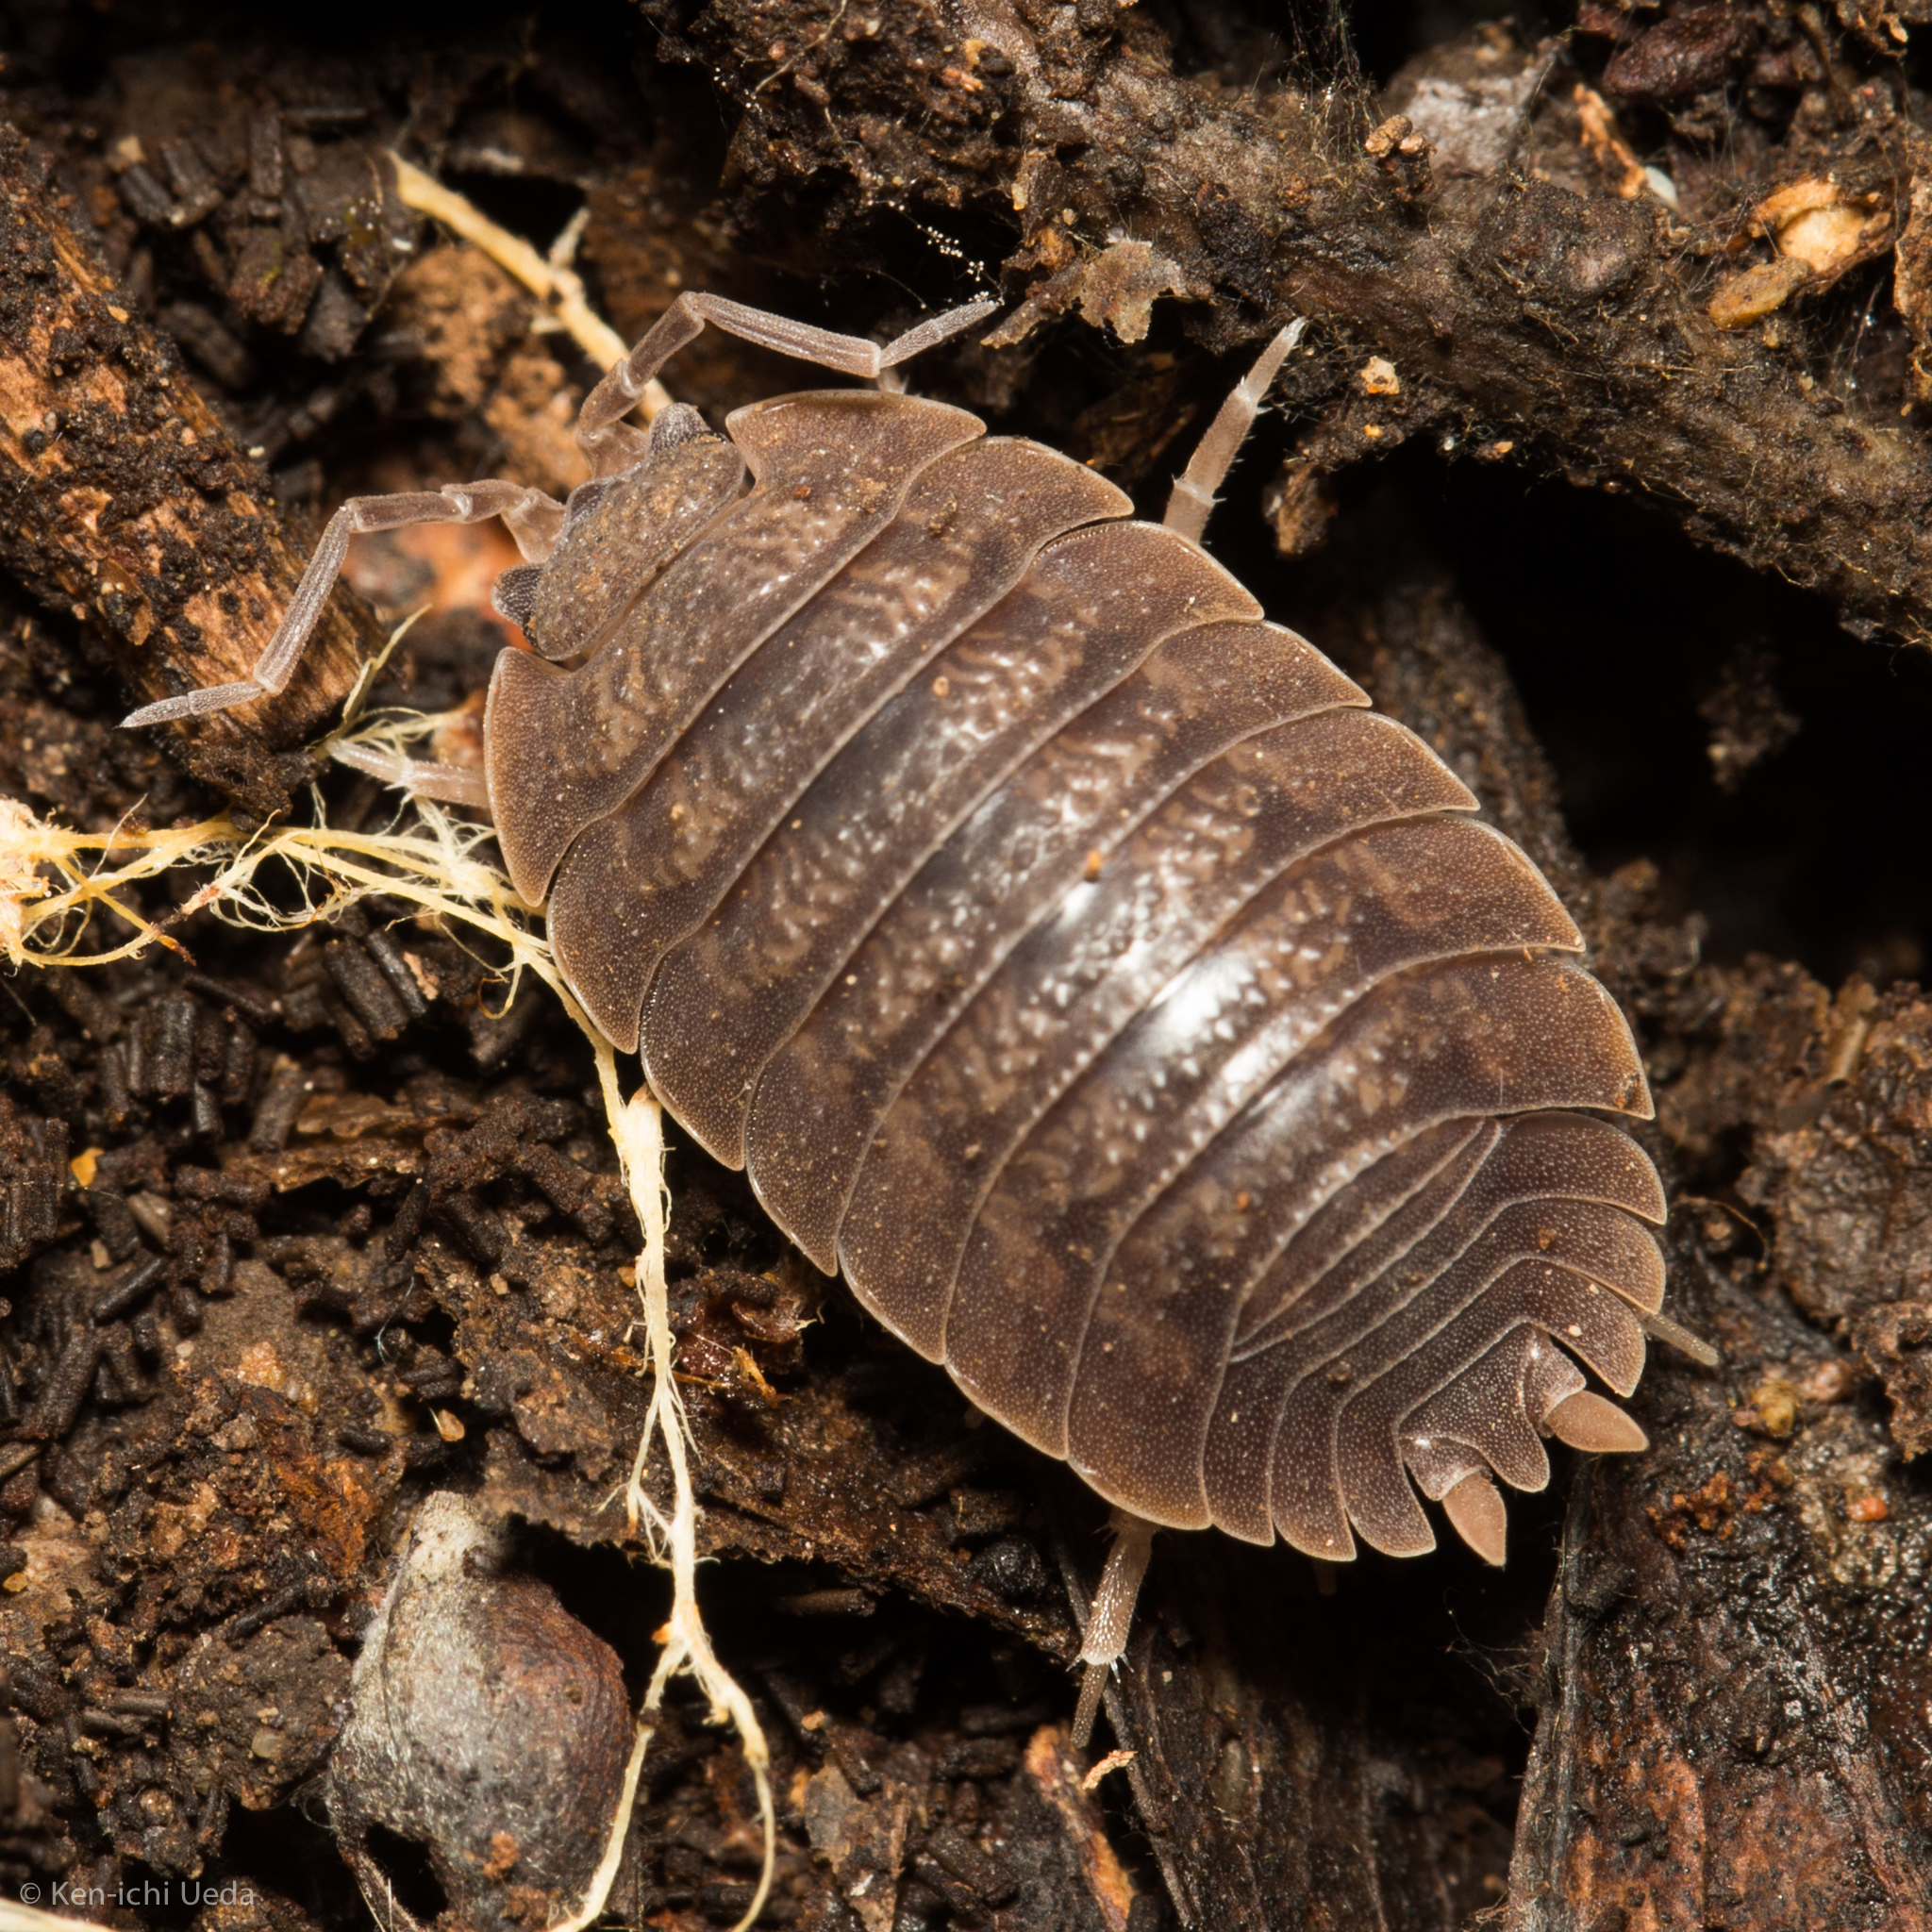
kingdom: Animalia
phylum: Arthropoda
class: Malacostraca
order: Isopoda
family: Porcellionidae
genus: Porcellio
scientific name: Porcellio dilatatus
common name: Isopod
